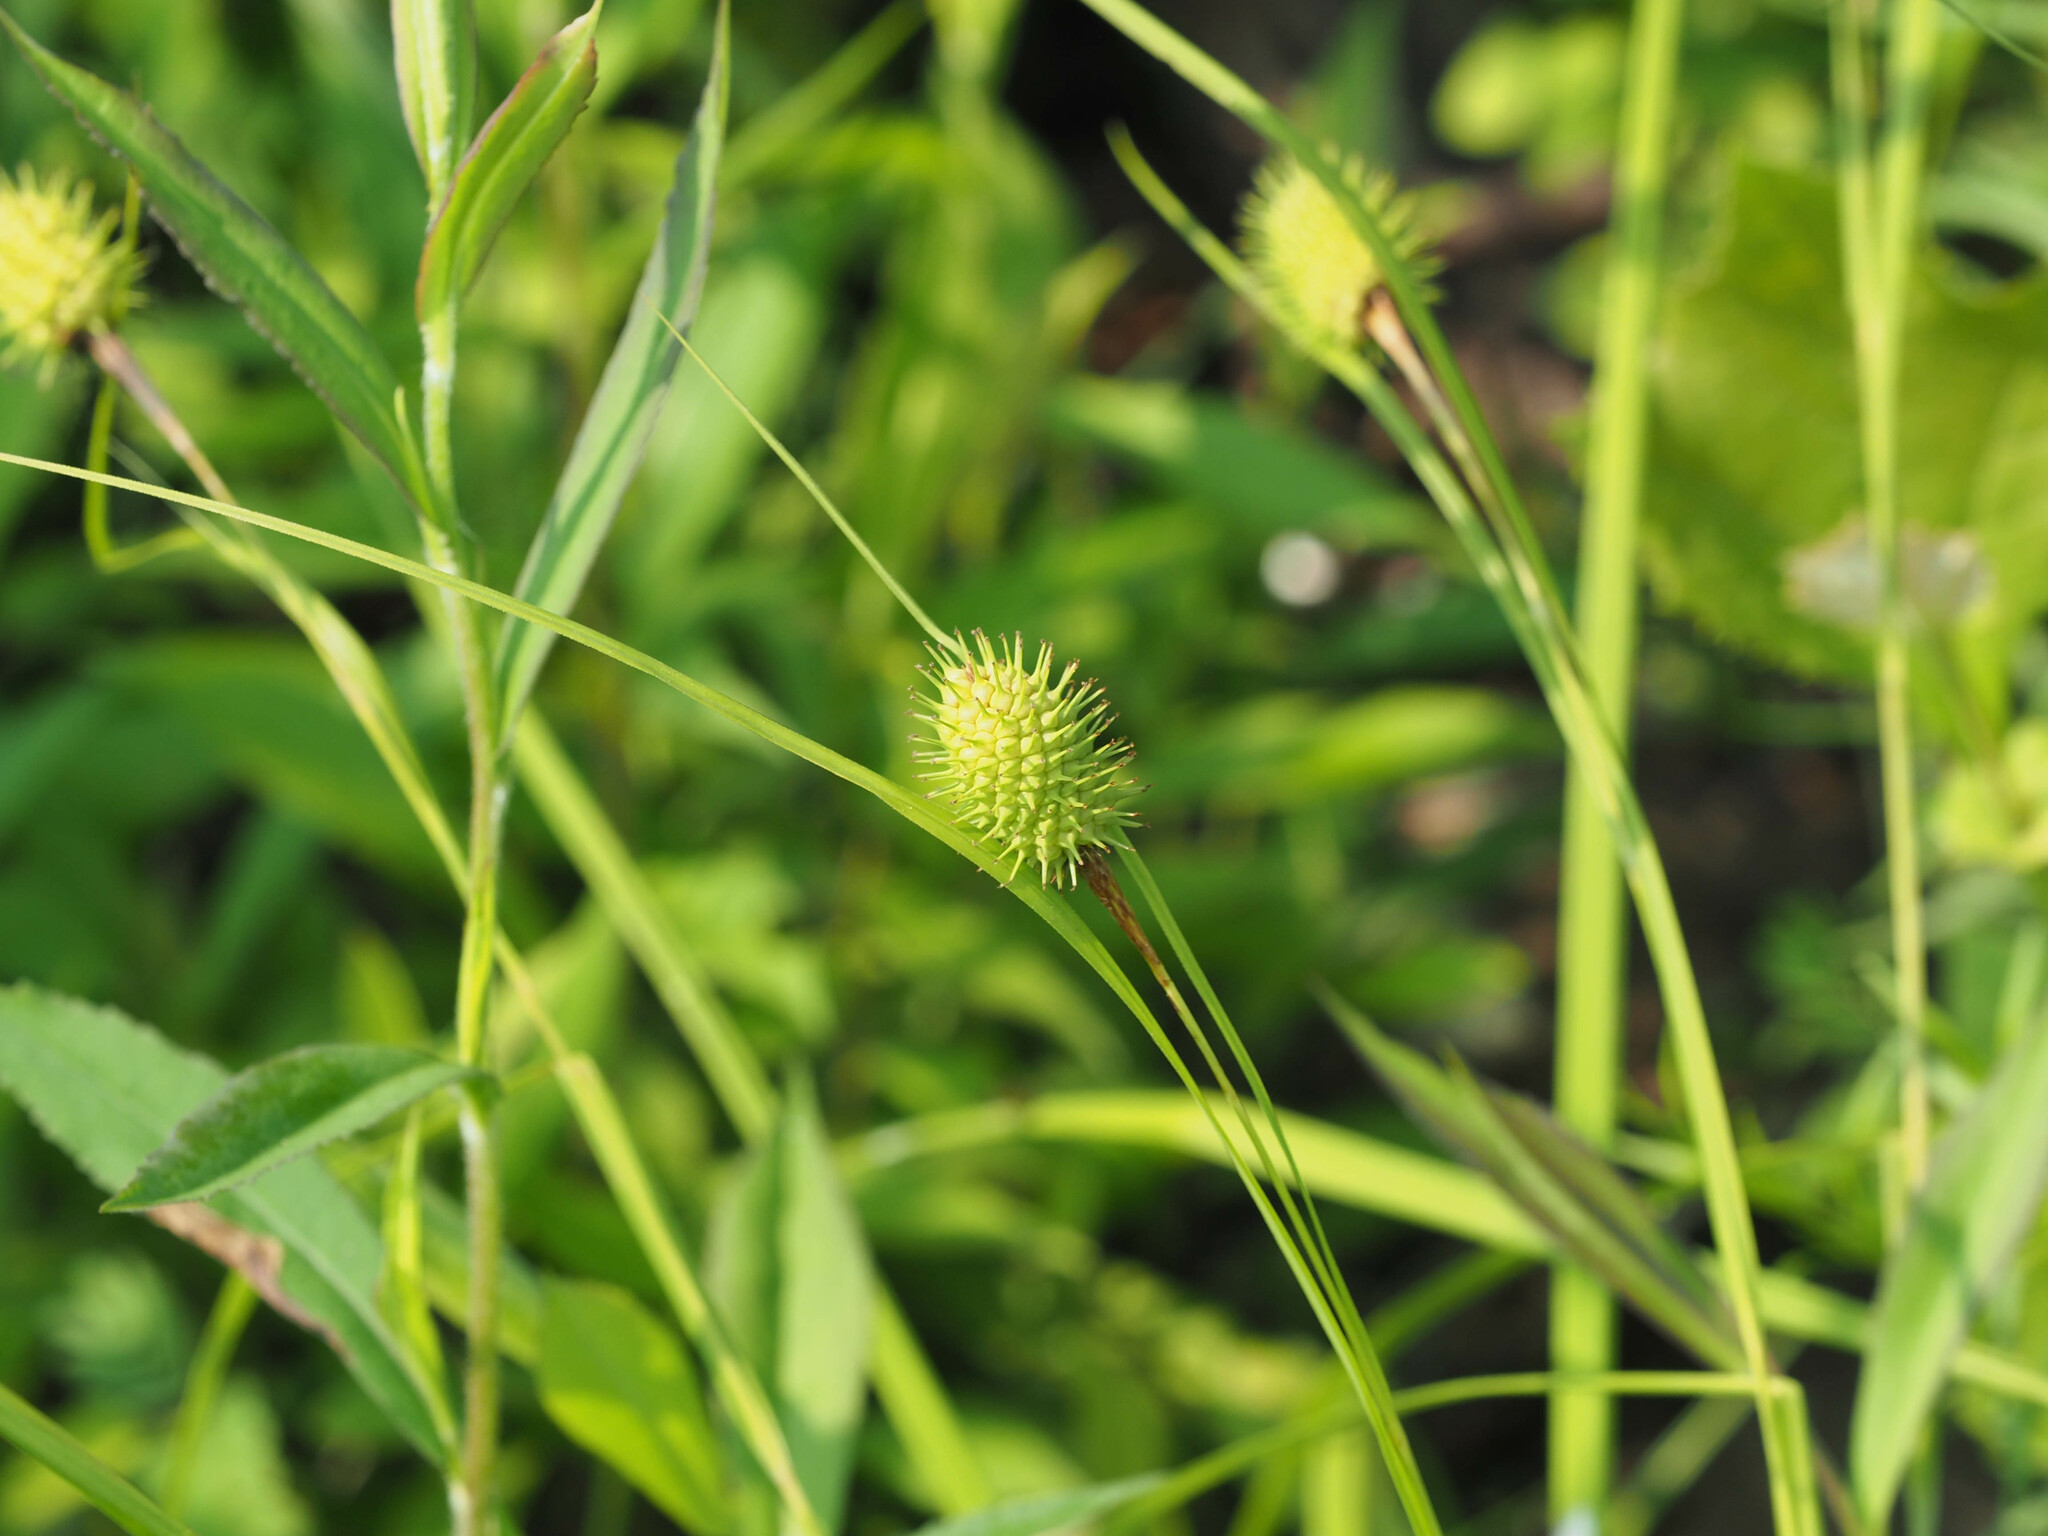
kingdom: Plantae
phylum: Tracheophyta
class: Liliopsida
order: Poales
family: Cyperaceae
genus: Carex
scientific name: Carex squarrosa
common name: Narrow-leaved cattail sedge
